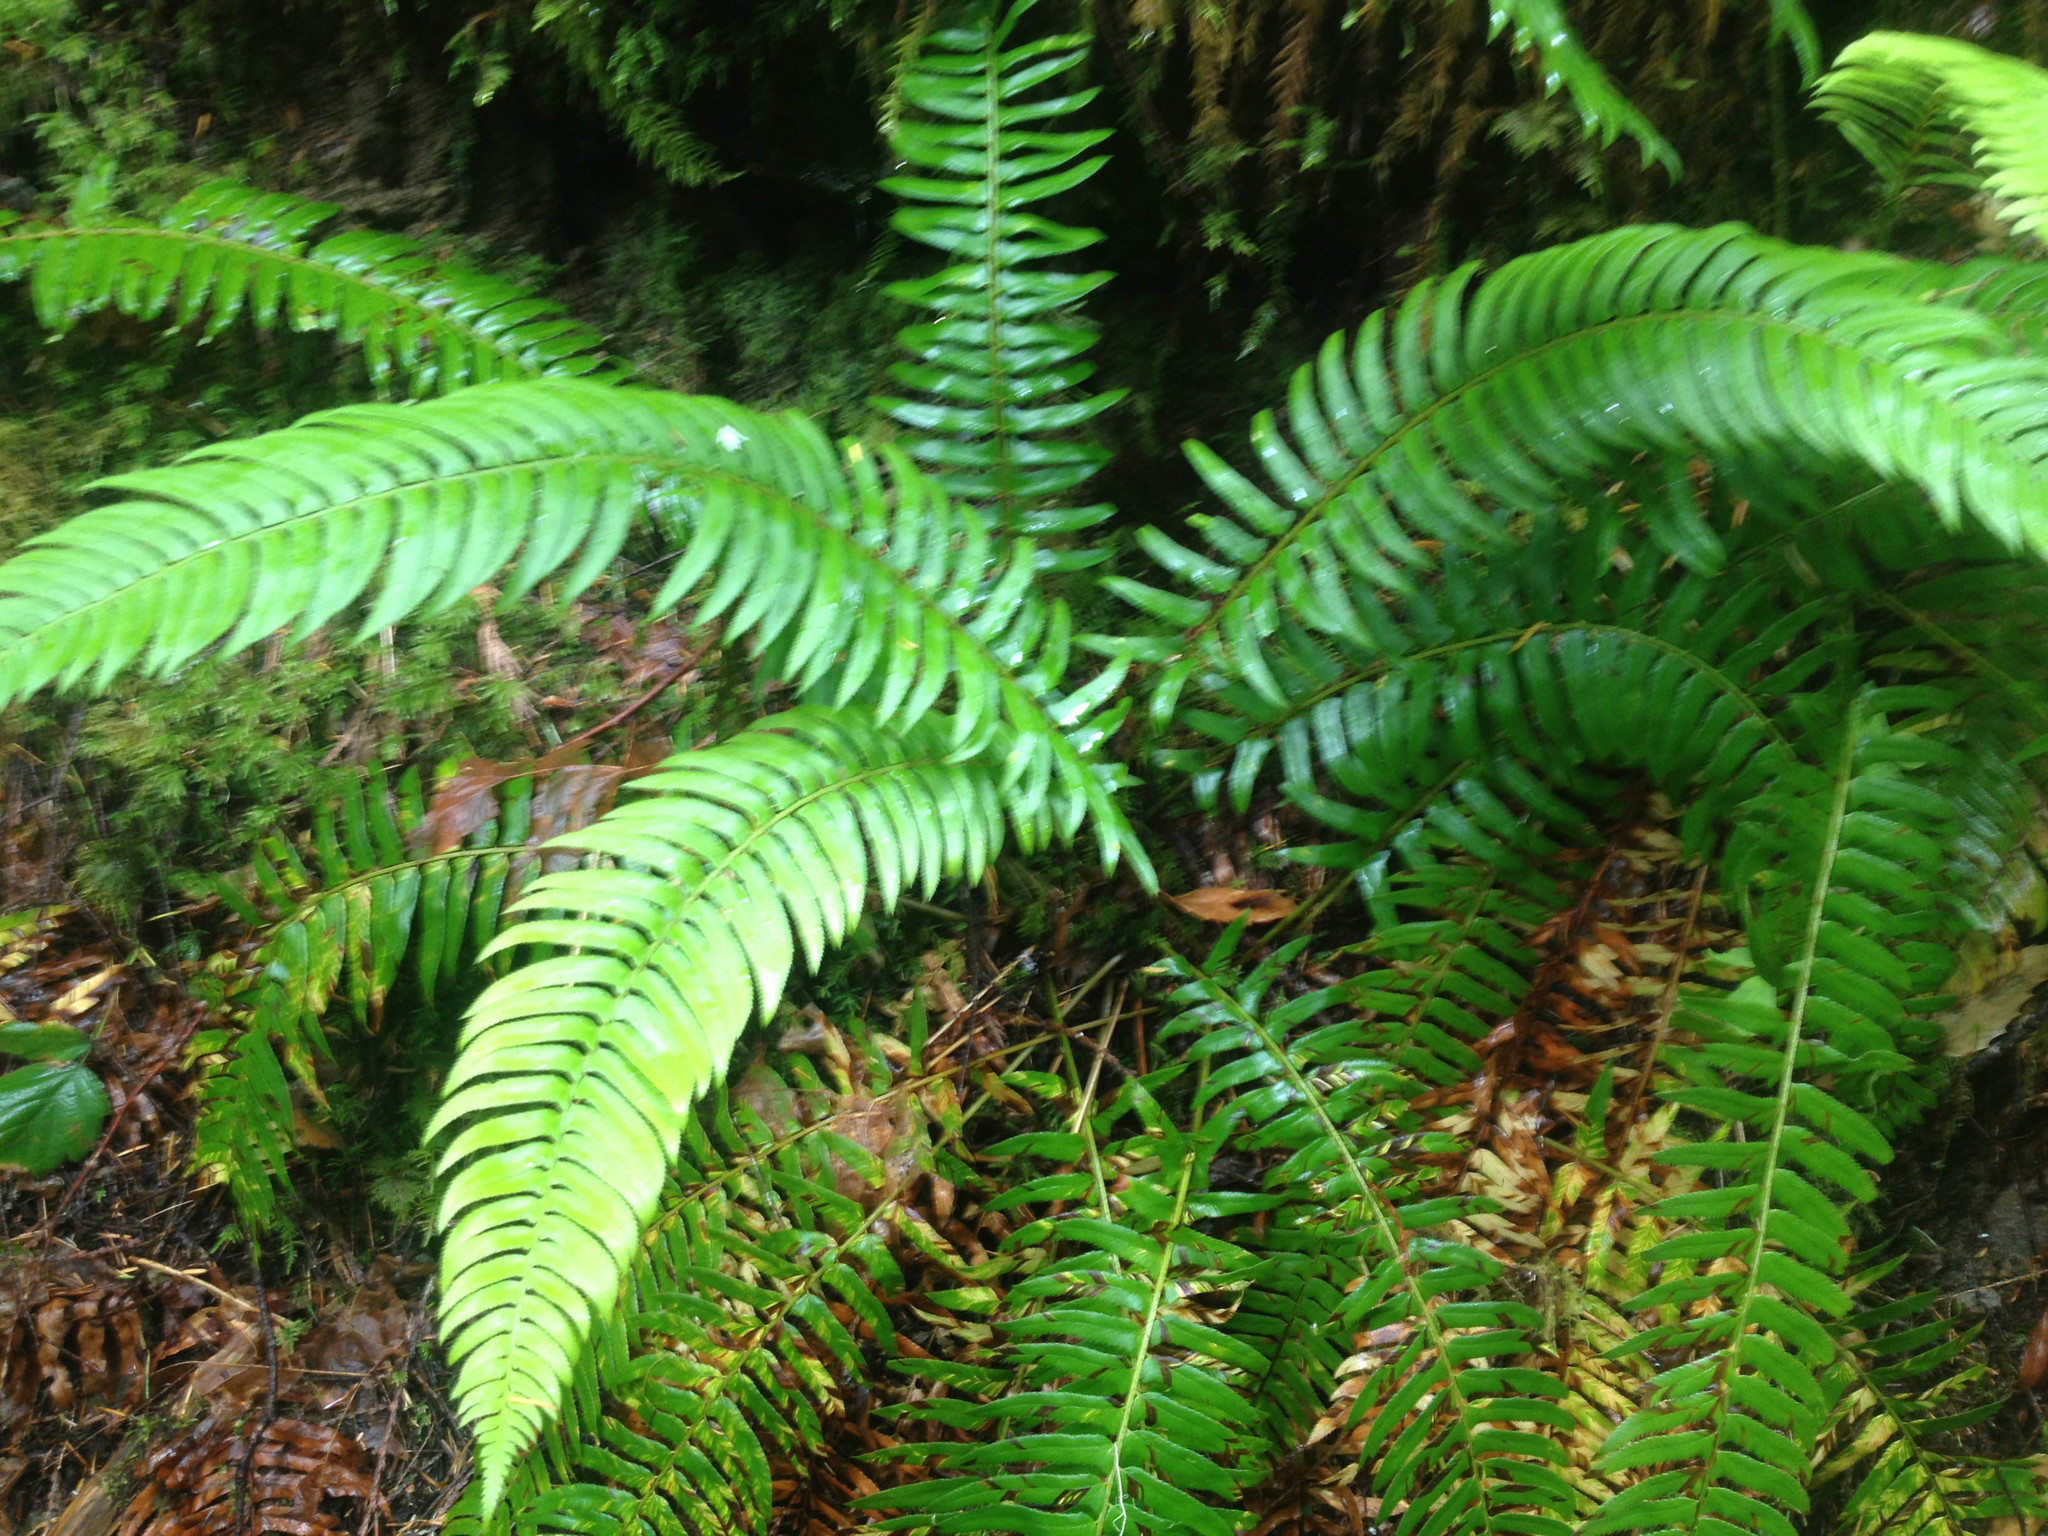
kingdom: Plantae
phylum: Tracheophyta
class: Polypodiopsida
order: Polypodiales
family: Dryopteridaceae
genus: Polystichum
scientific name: Polystichum munitum
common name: Western sword-fern
